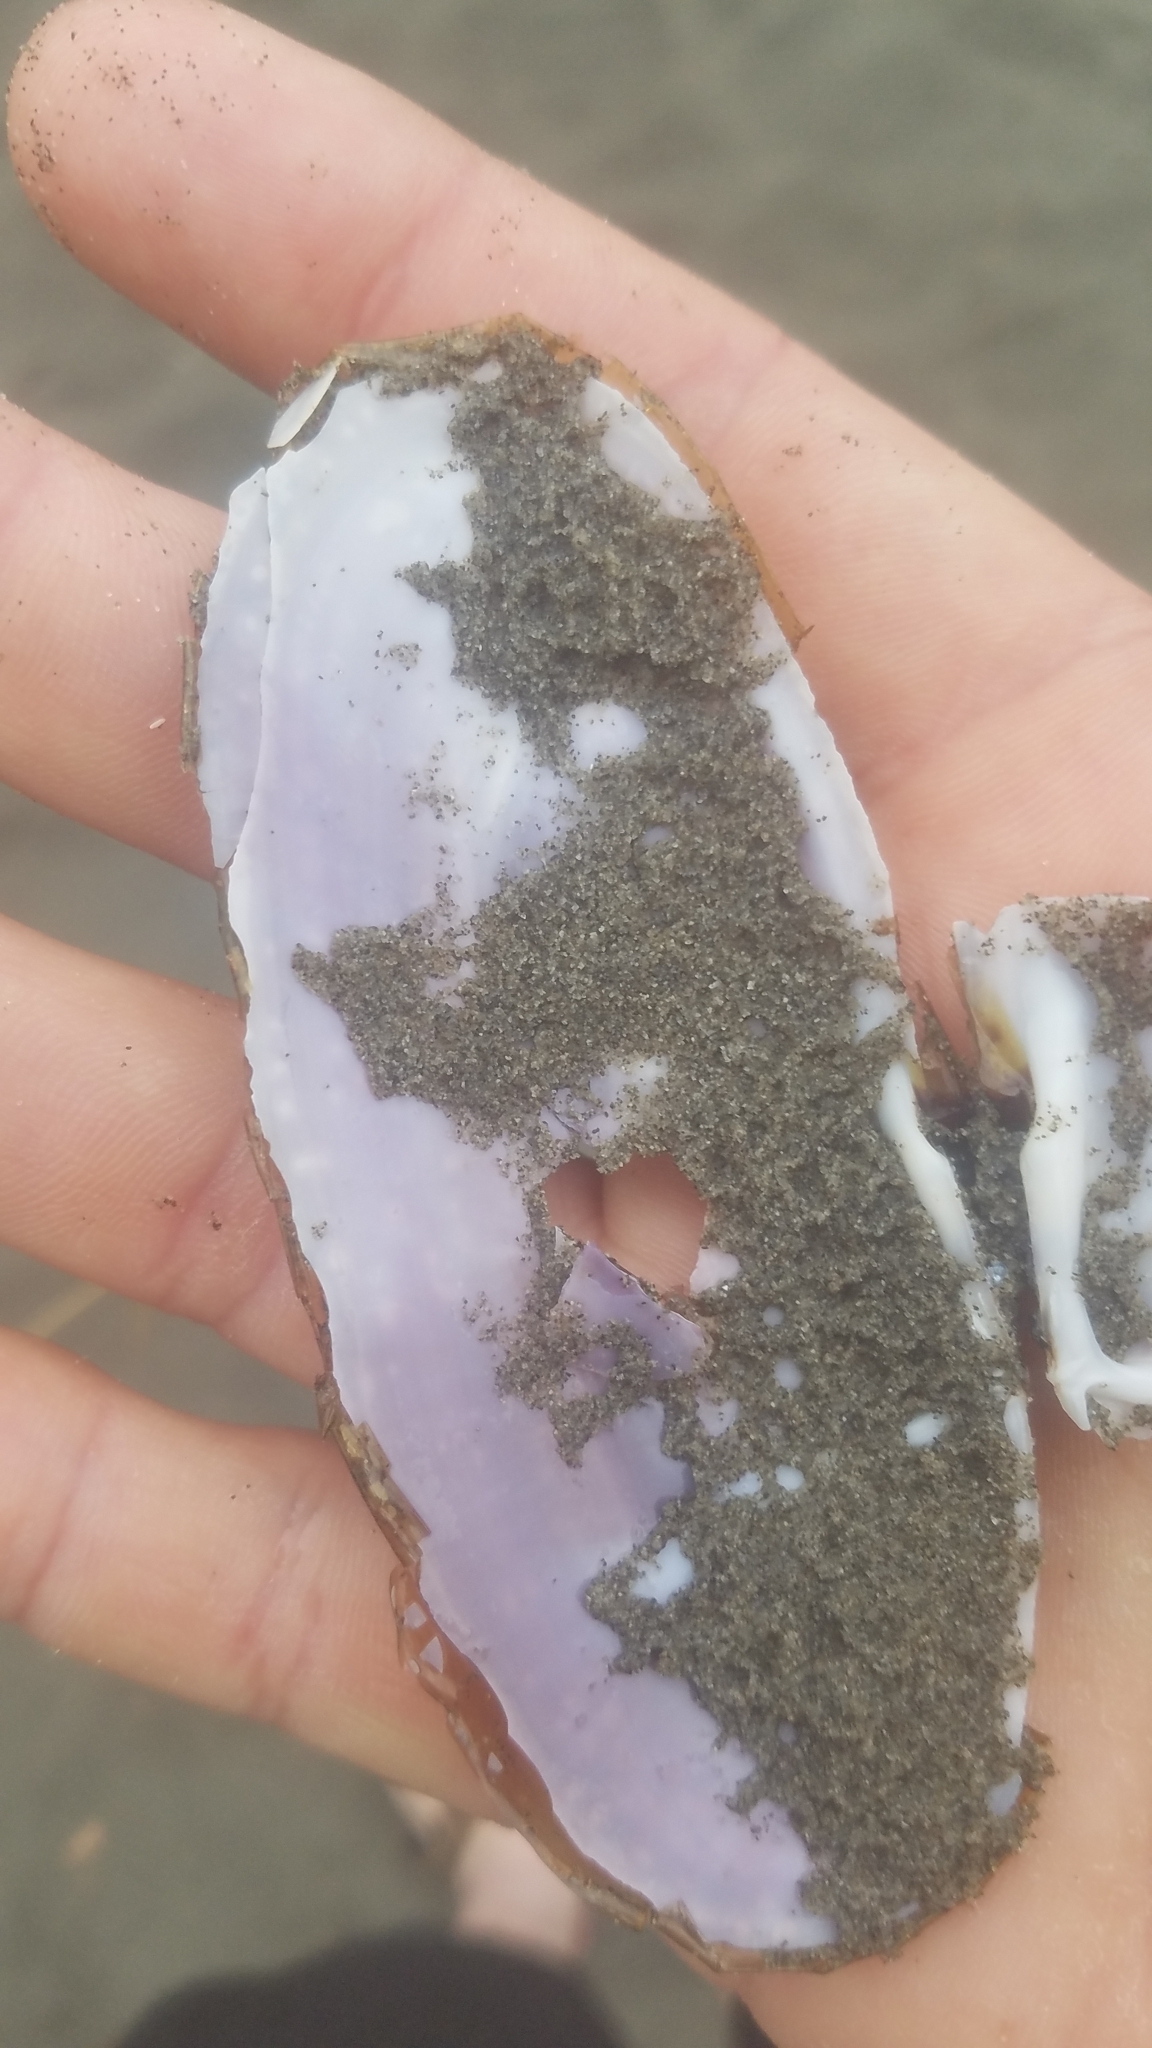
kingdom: Animalia
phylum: Mollusca
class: Bivalvia
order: Adapedonta
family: Pharidae
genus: Siliqua
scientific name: Siliqua patula
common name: Pacific razor clam
